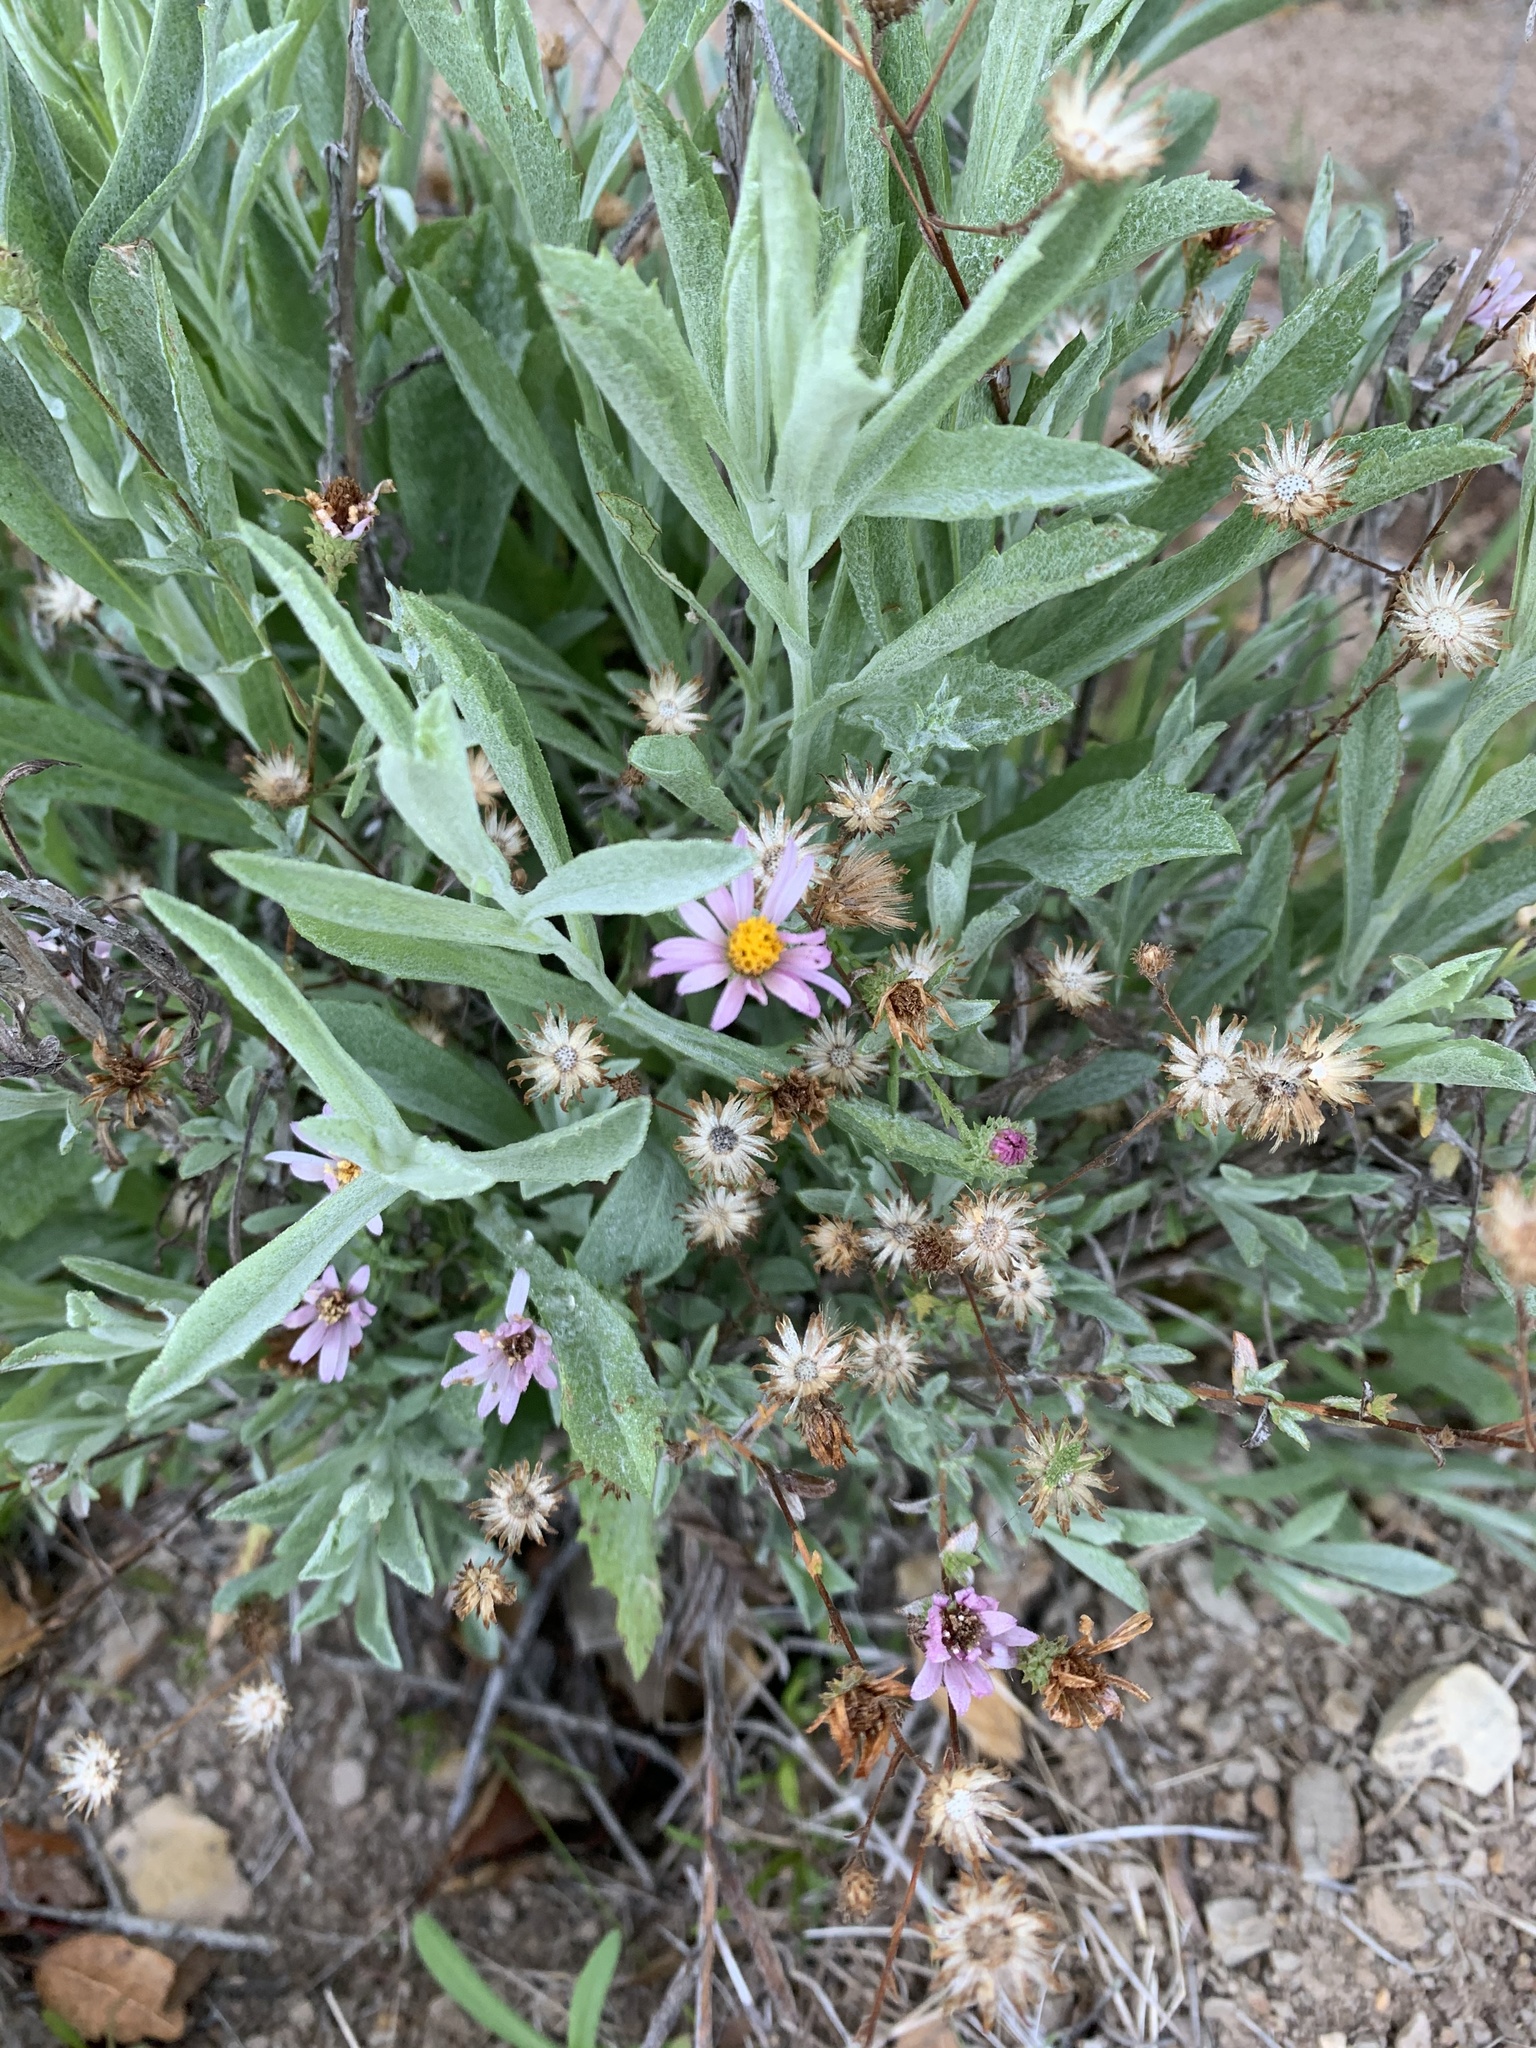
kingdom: Plantae
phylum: Tracheophyta
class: Magnoliopsida
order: Asterales
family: Asteraceae
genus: Corethrogyne
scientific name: Corethrogyne filaginifolia
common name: Sand-aster
